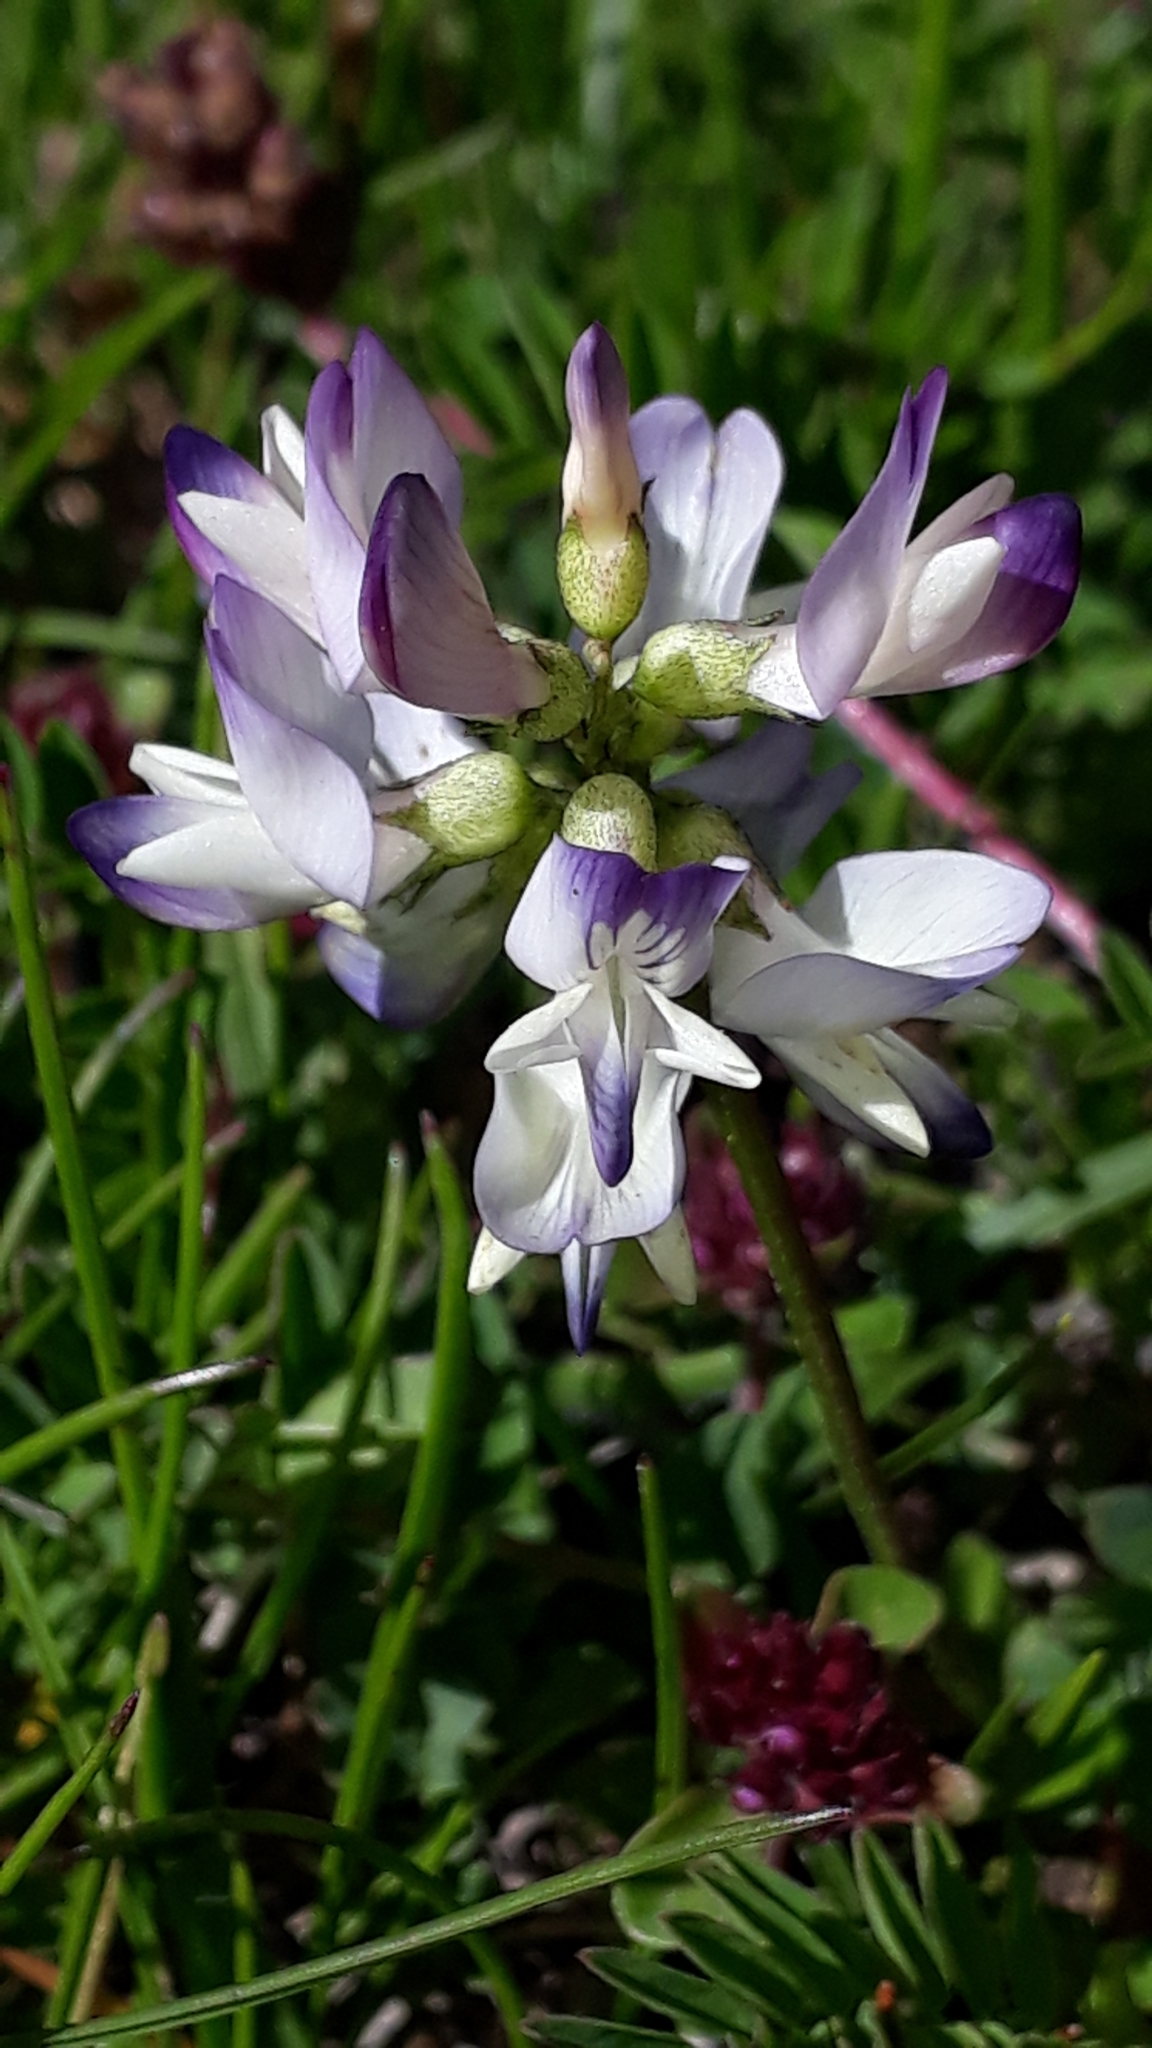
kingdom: Plantae
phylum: Tracheophyta
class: Magnoliopsida
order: Fabales
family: Fabaceae
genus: Astragalus
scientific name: Astragalus alpinus
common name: Alpine milk-vetch
